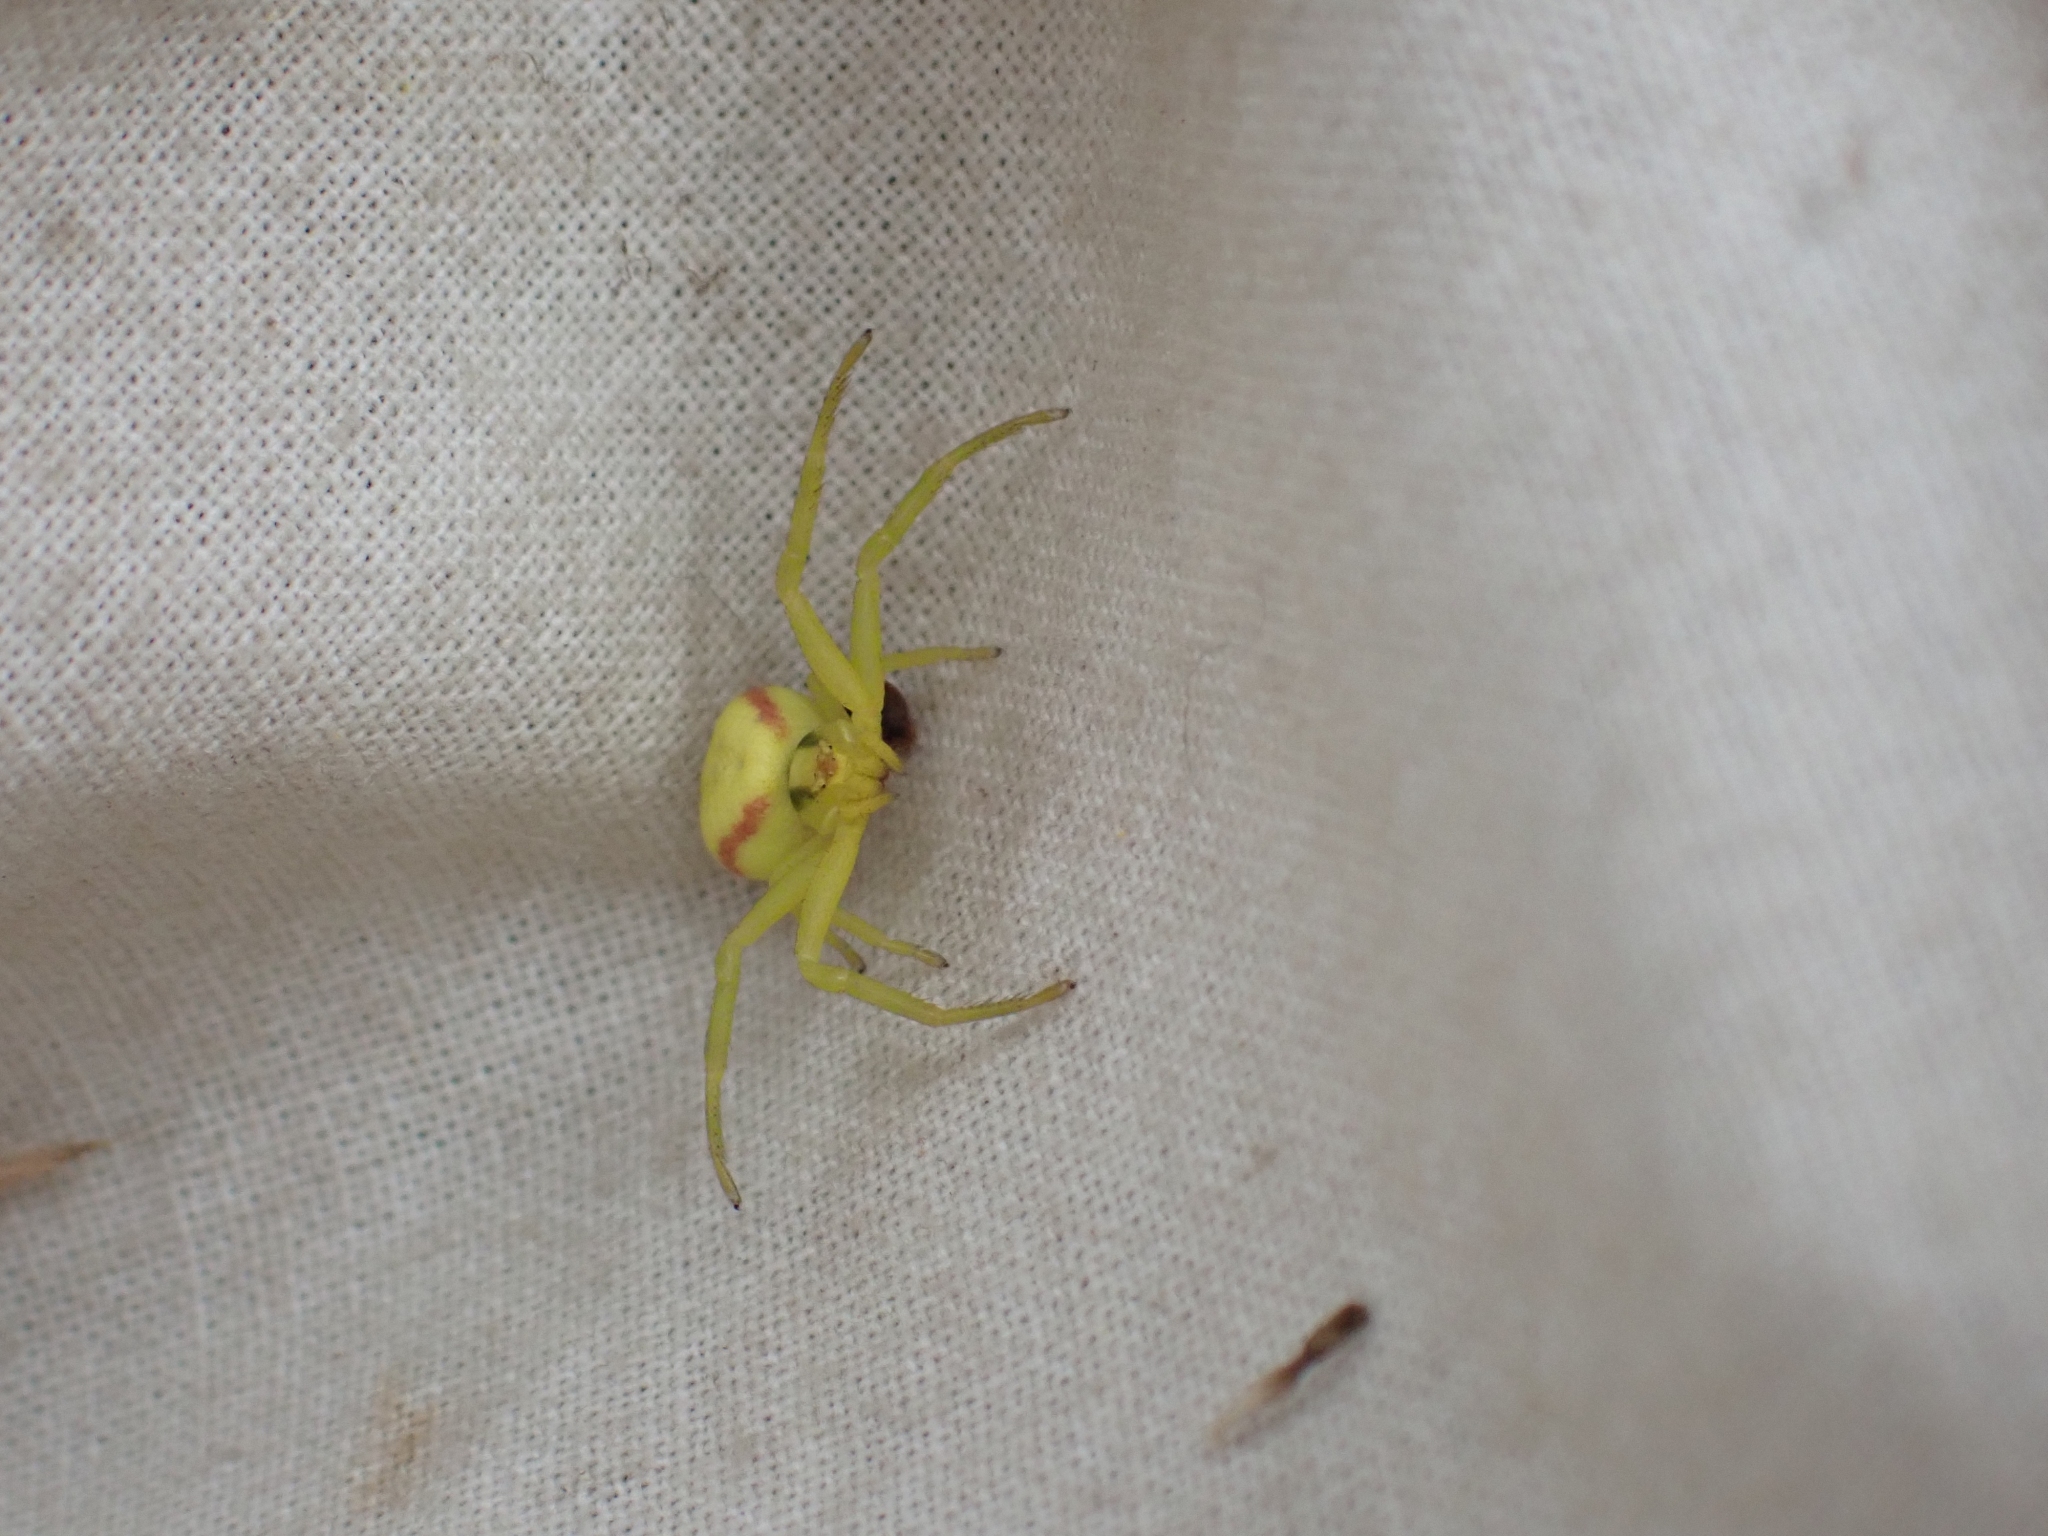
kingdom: Animalia
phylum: Arthropoda
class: Arachnida
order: Araneae
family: Thomisidae
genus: Misumena
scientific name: Misumena vatia
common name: Goldenrod crab spider
